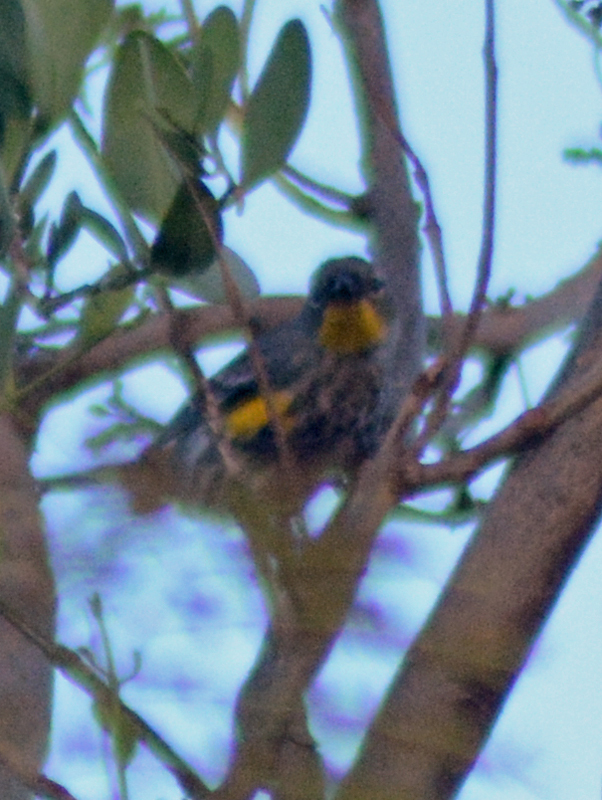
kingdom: Animalia
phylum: Chordata
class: Aves
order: Passeriformes
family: Parulidae
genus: Setophaga
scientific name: Setophaga auduboni
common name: Audubon's warbler
